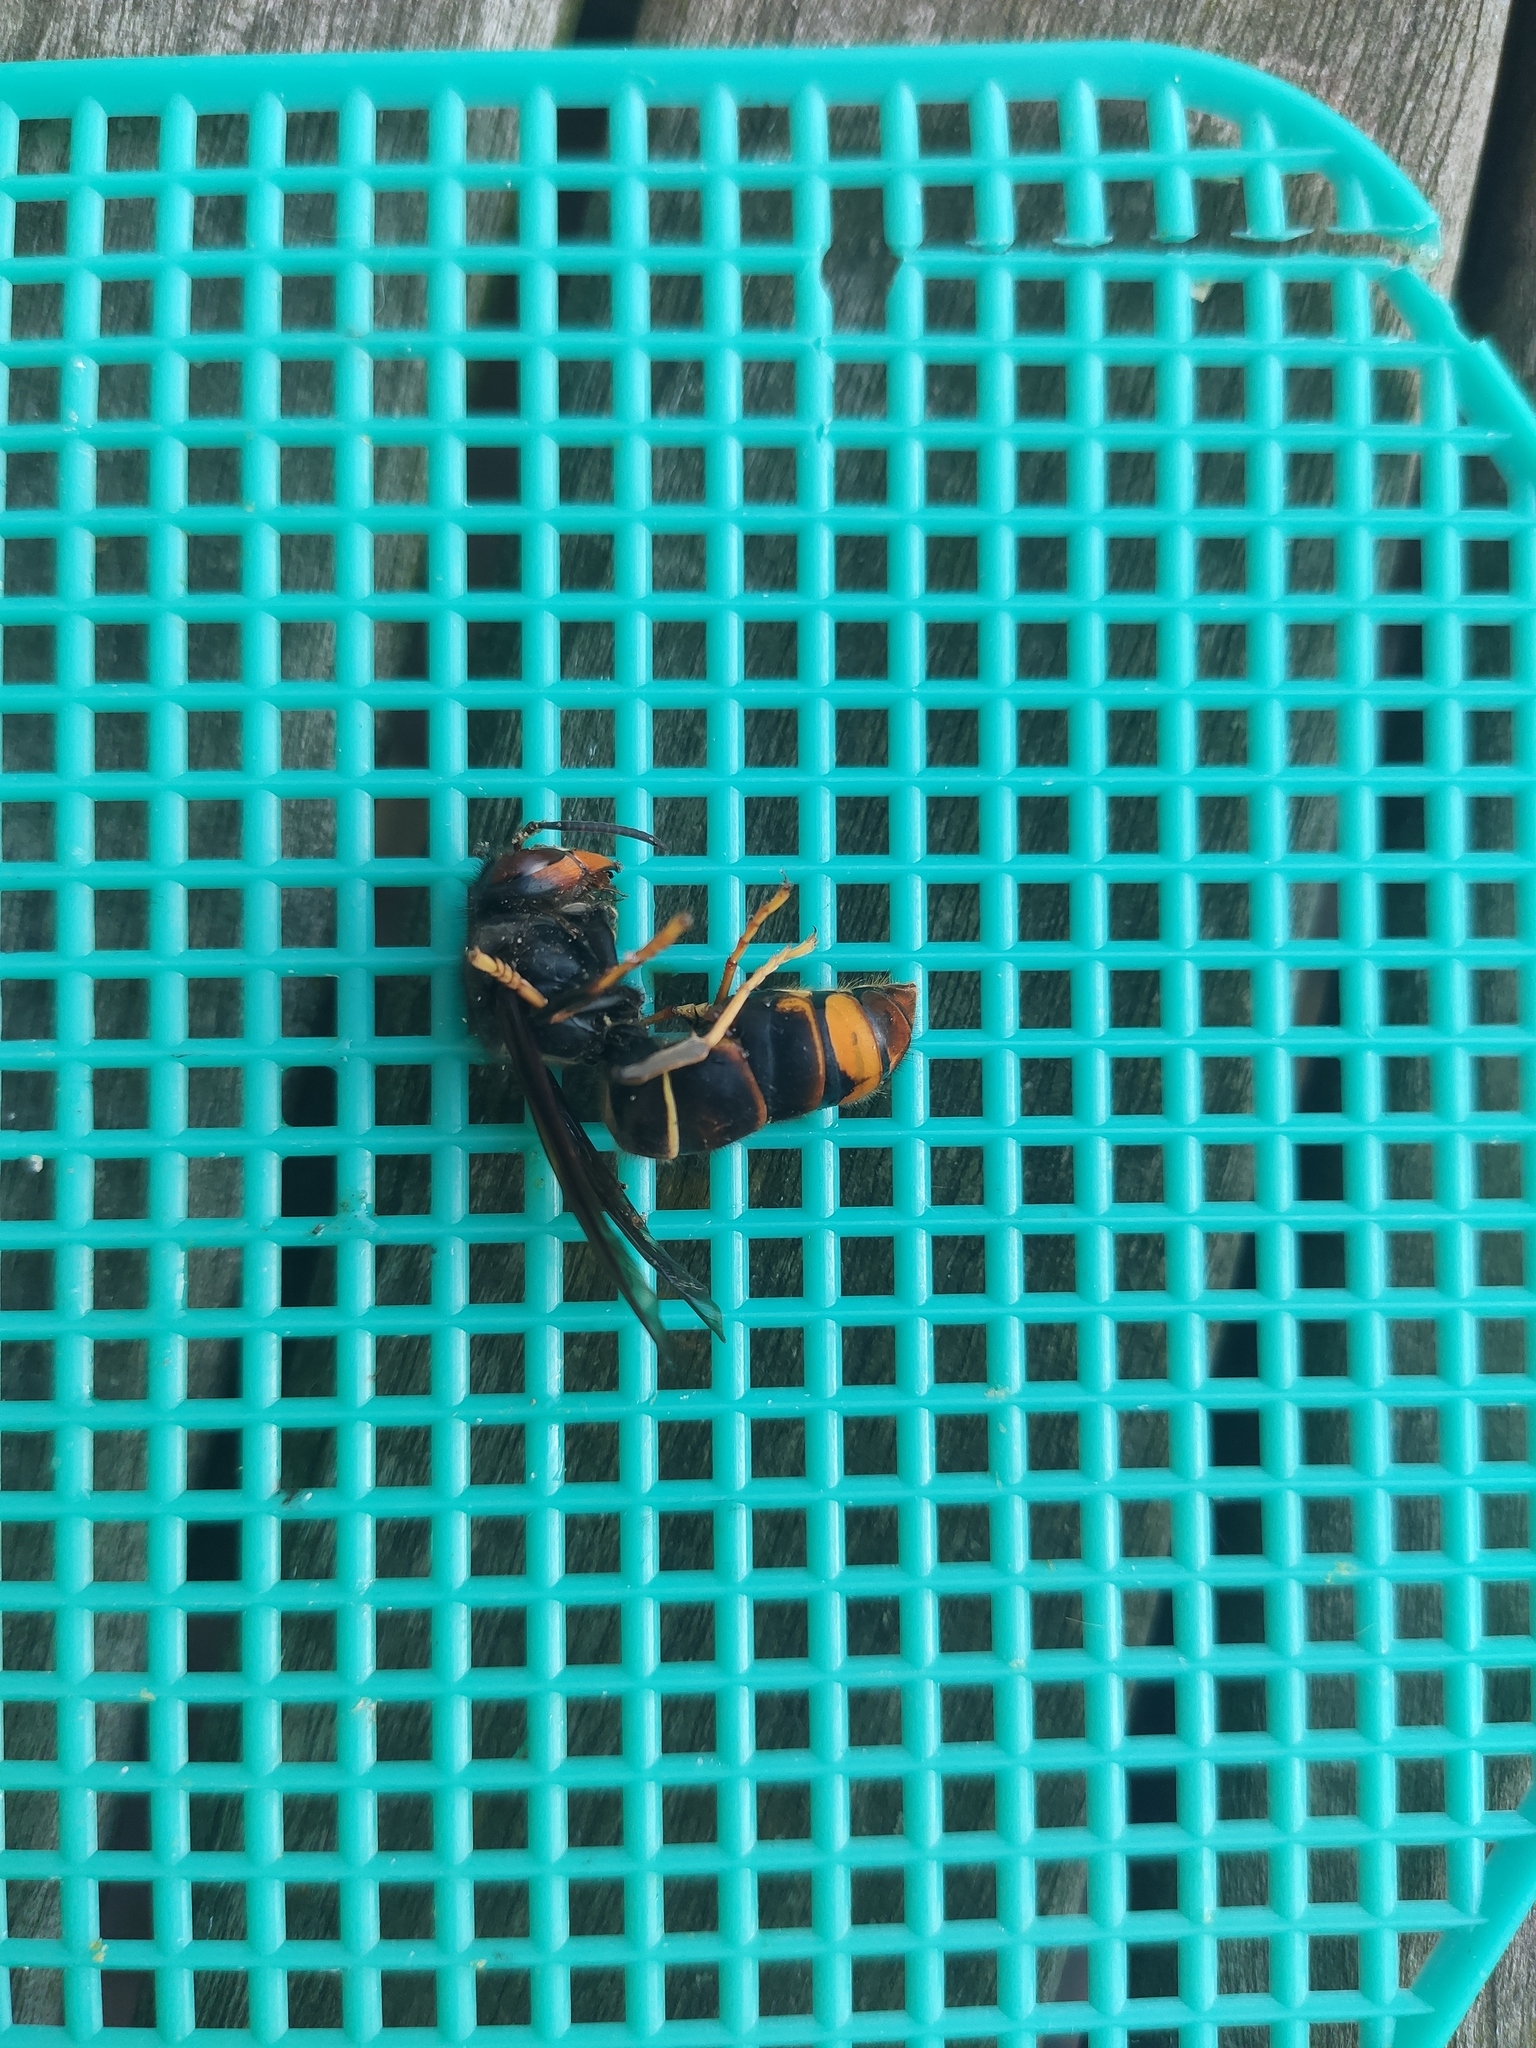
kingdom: Animalia
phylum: Arthropoda
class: Insecta
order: Hymenoptera
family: Vespidae
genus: Vespa
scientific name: Vespa velutina
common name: Asian hornet
